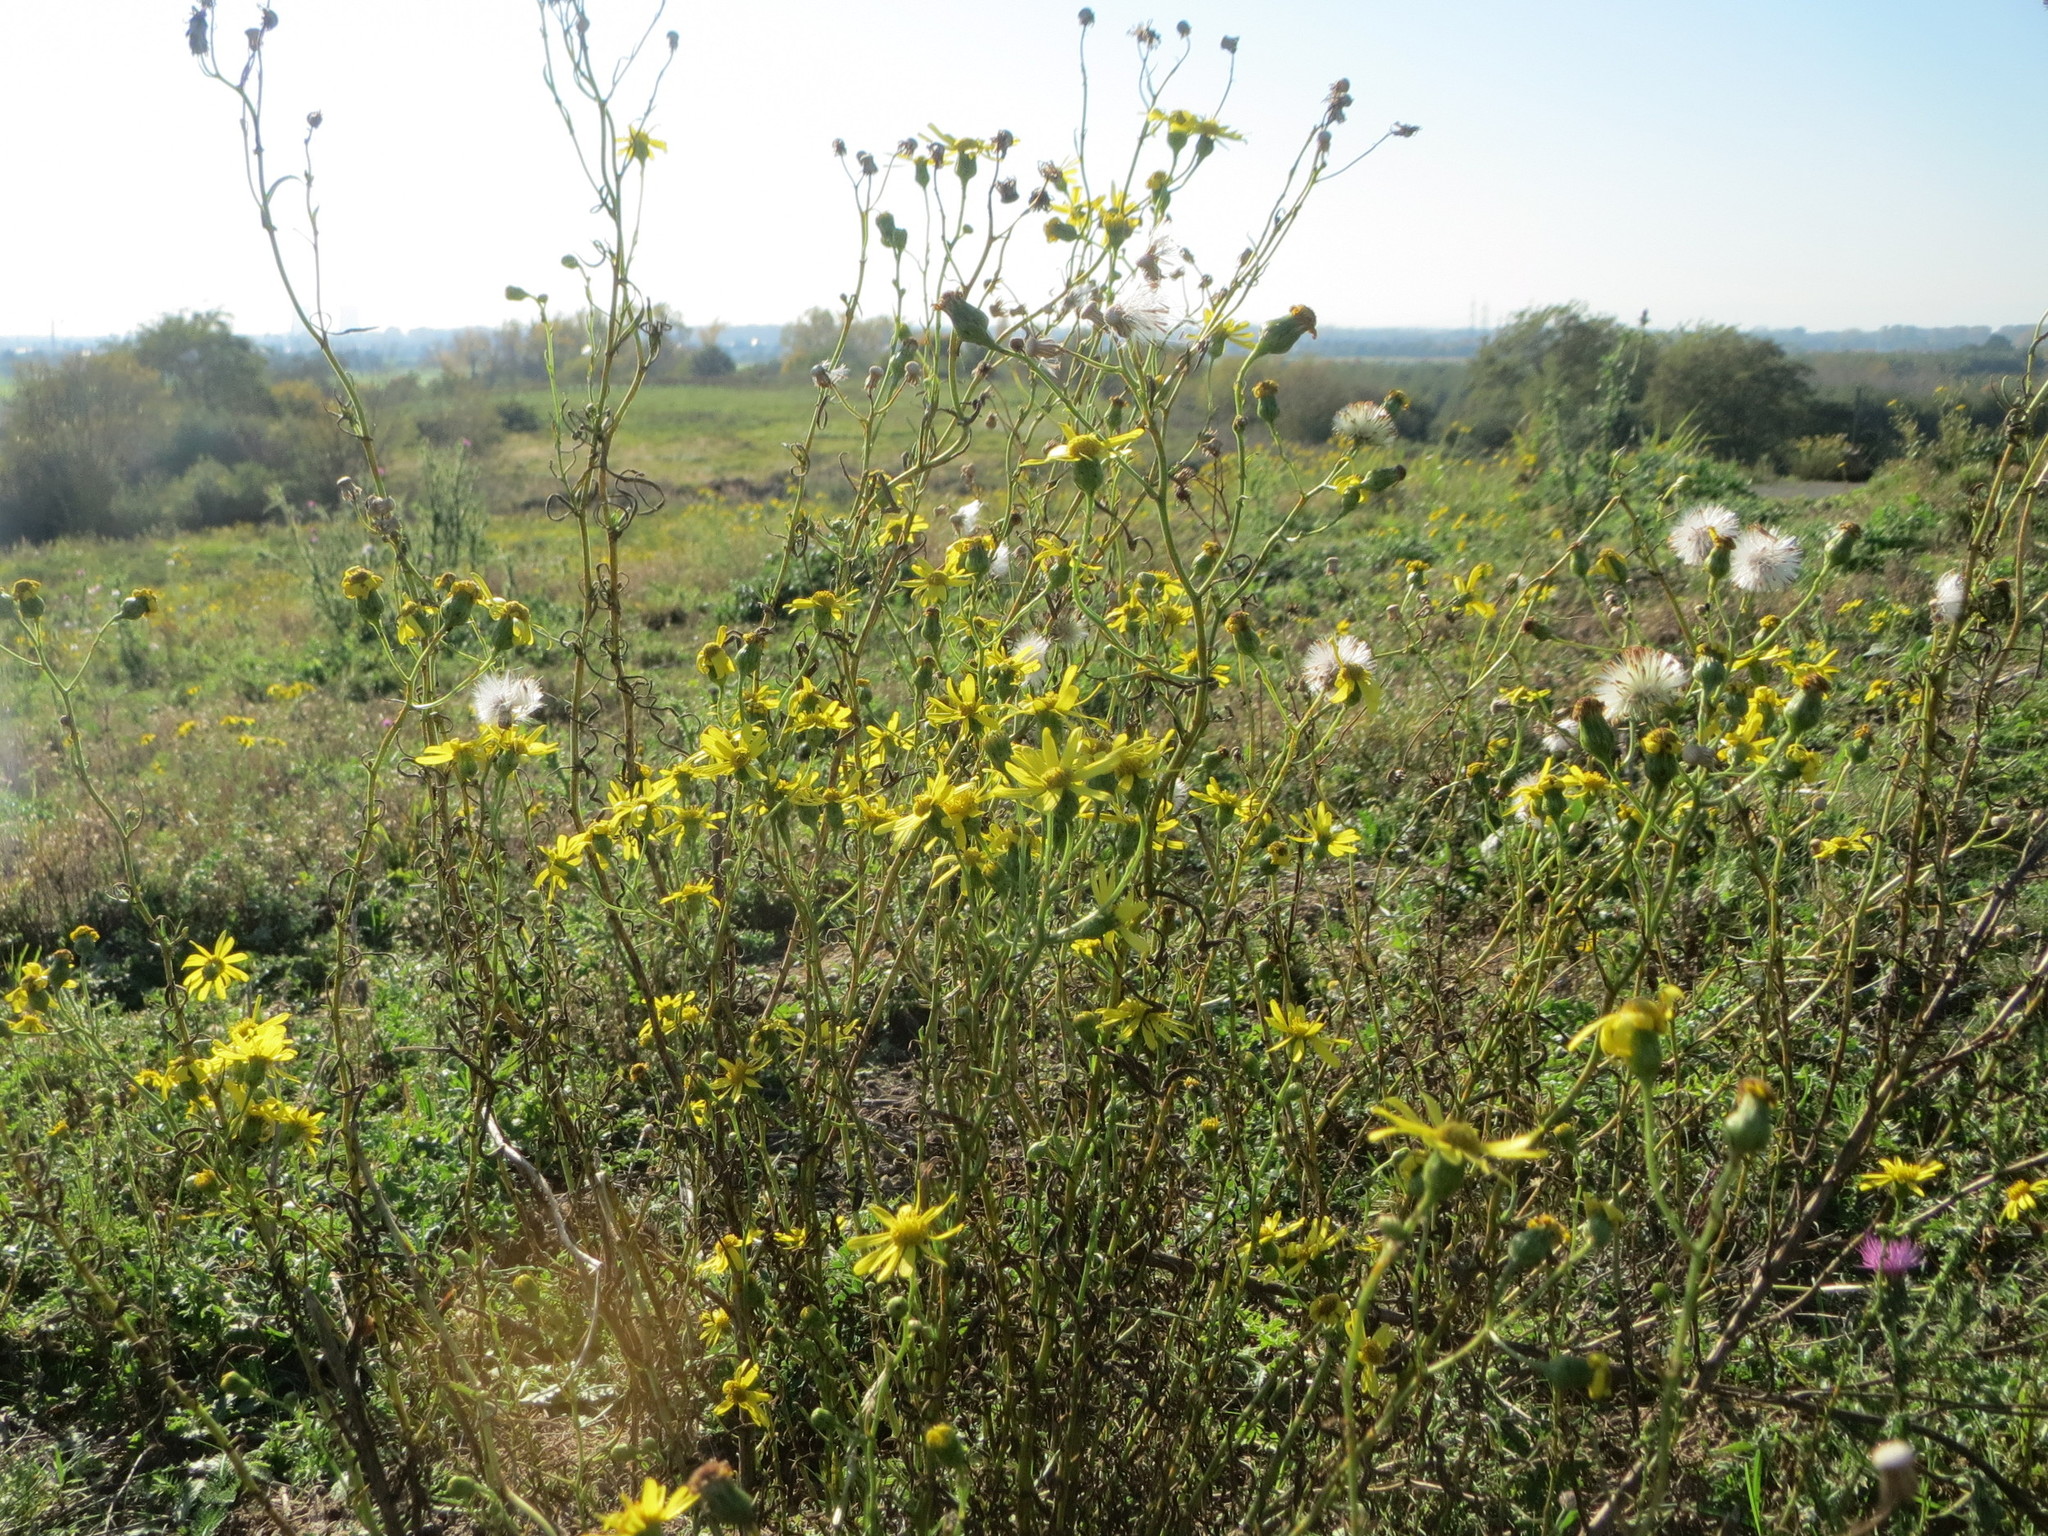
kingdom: Plantae
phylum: Tracheophyta
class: Magnoliopsida
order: Asterales
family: Asteraceae
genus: Senecio
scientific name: Senecio inaequidens
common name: Narrow-leaved ragwort
